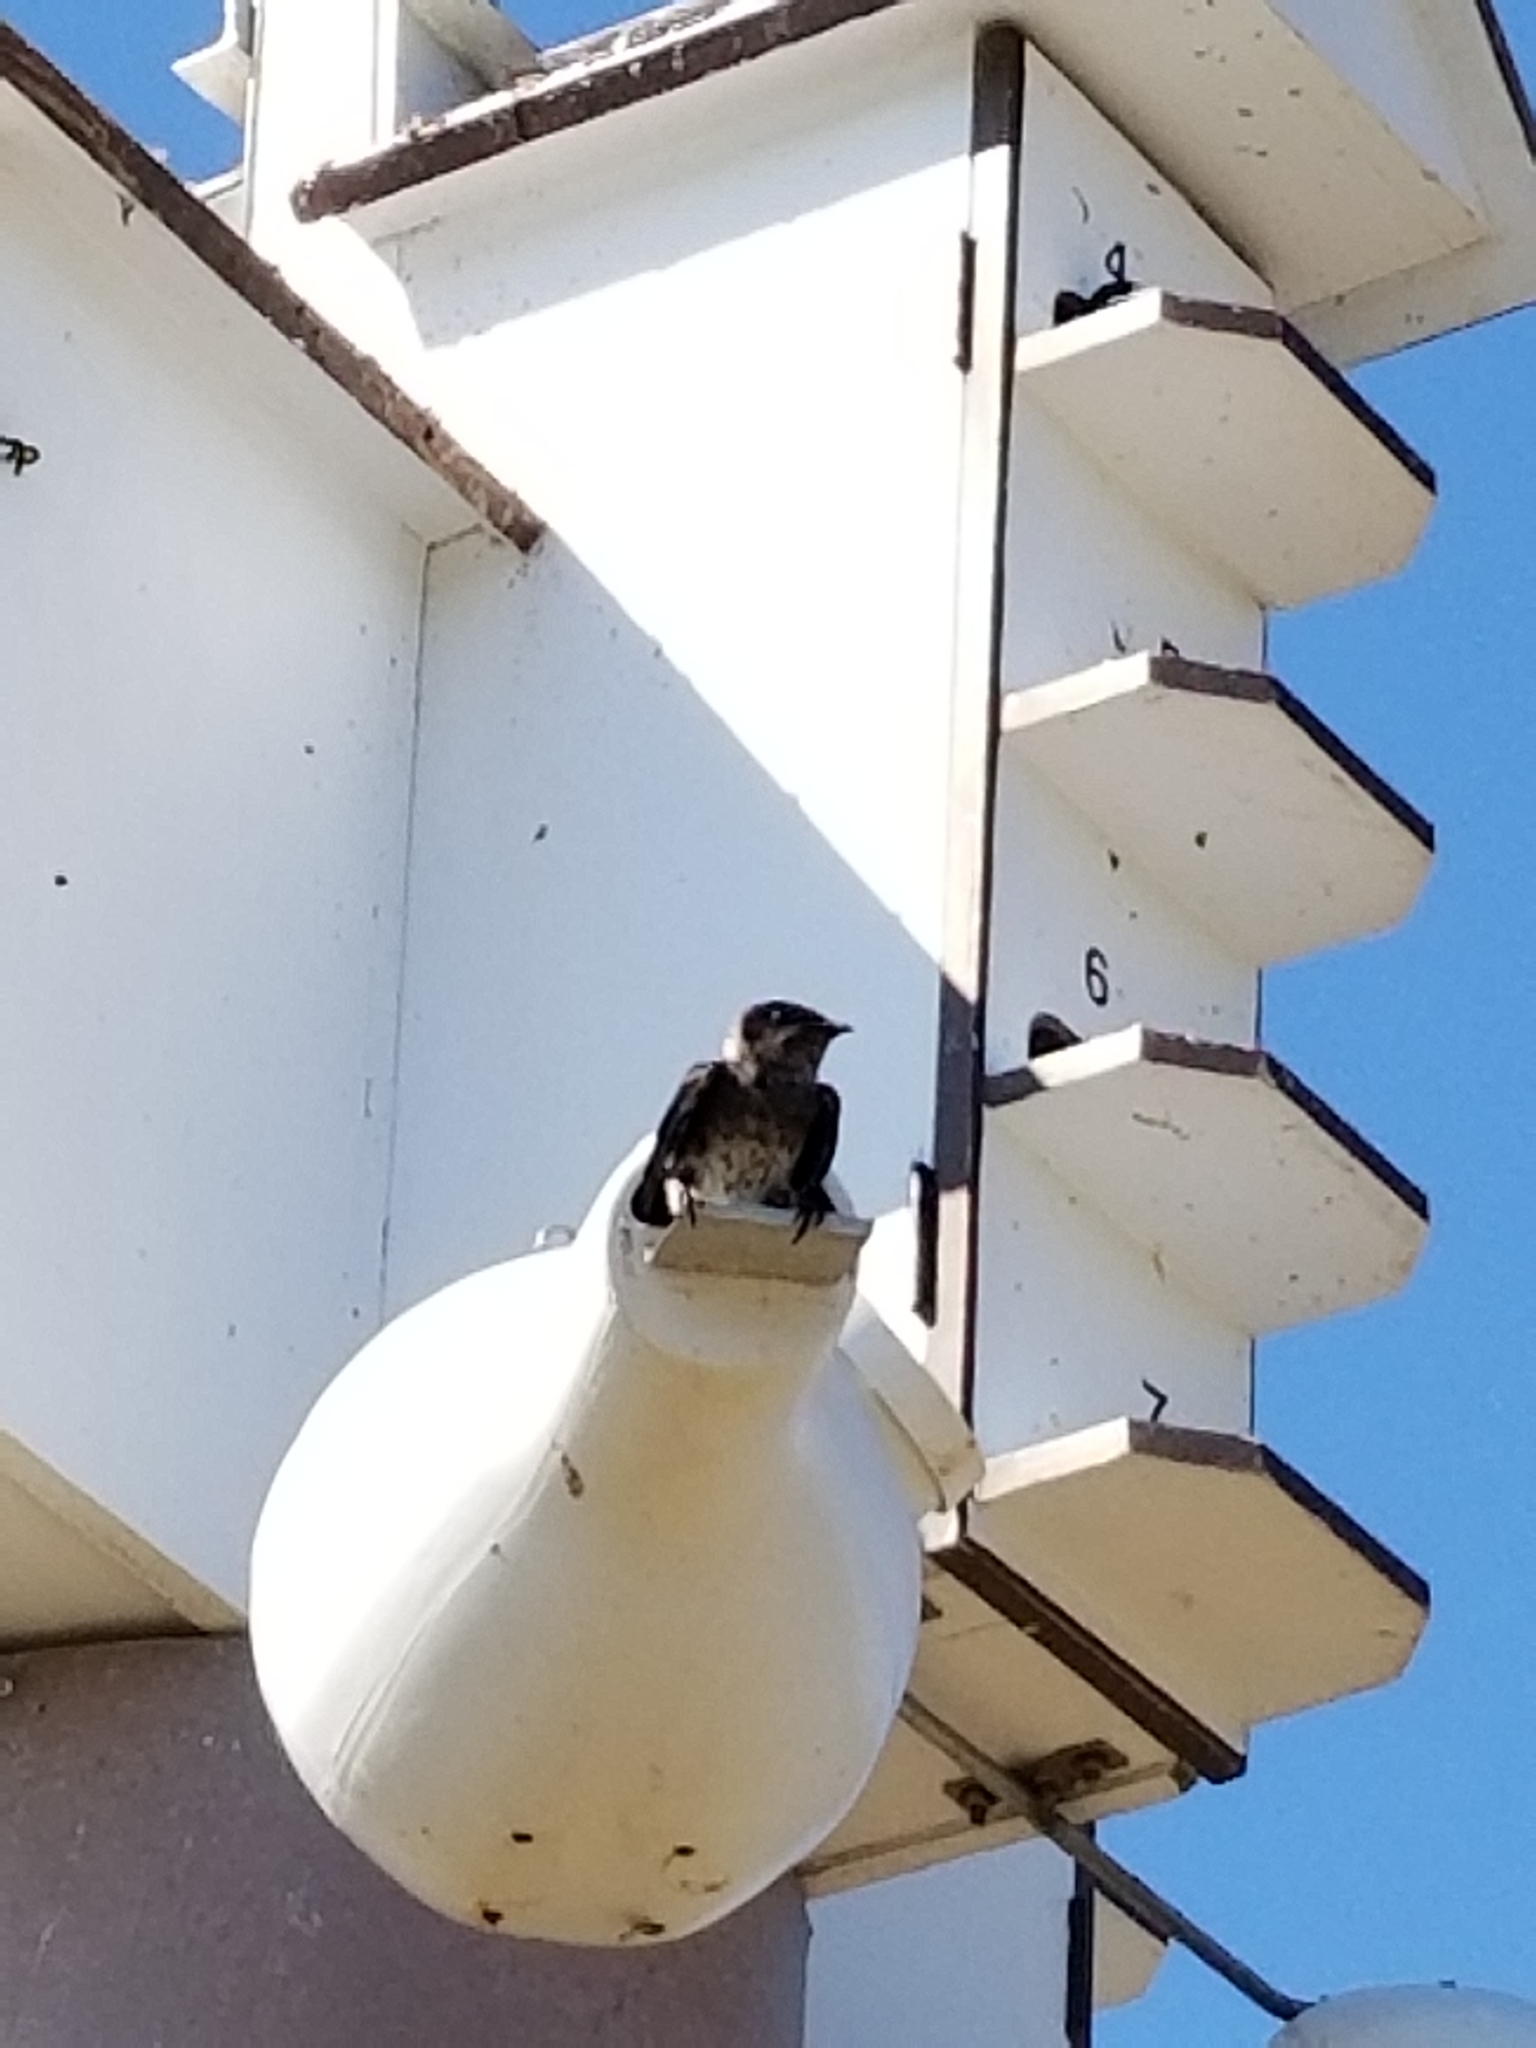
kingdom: Animalia
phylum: Chordata
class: Aves
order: Passeriformes
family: Hirundinidae
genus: Progne
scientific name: Progne subis
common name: Purple martin
